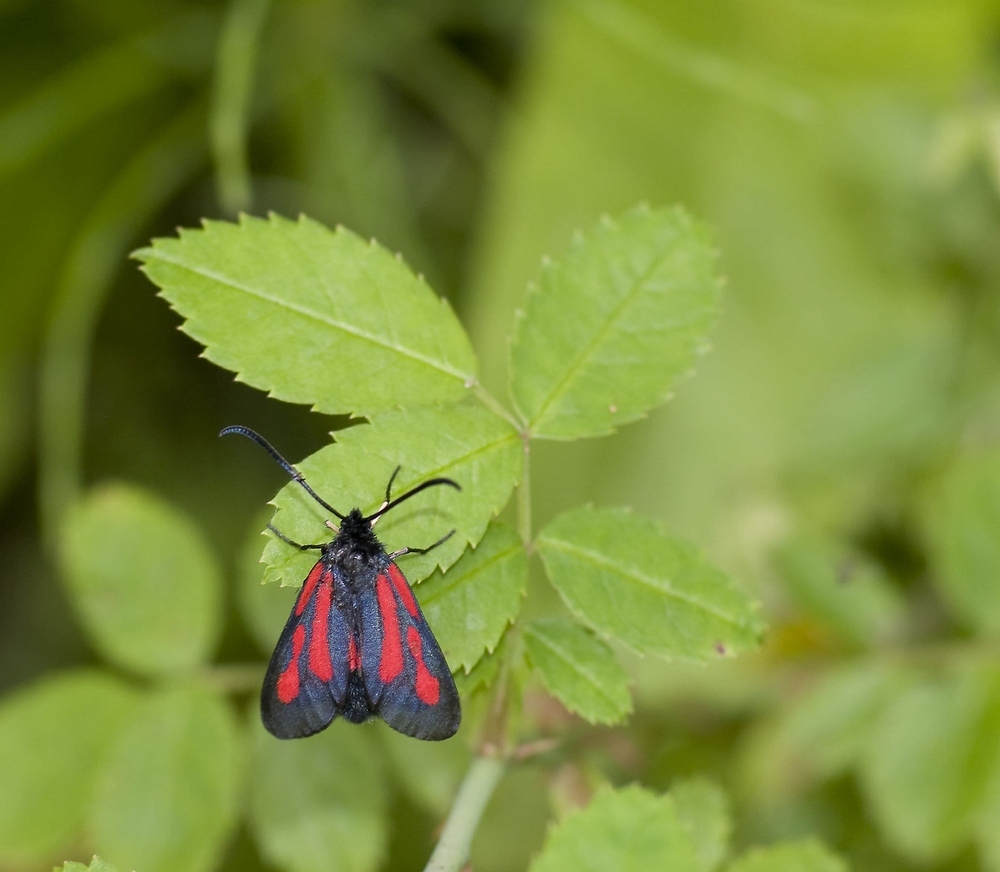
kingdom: Animalia
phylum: Arthropoda
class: Insecta
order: Lepidoptera
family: Zygaenidae
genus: Zygaena
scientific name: Zygaena osterodensis
